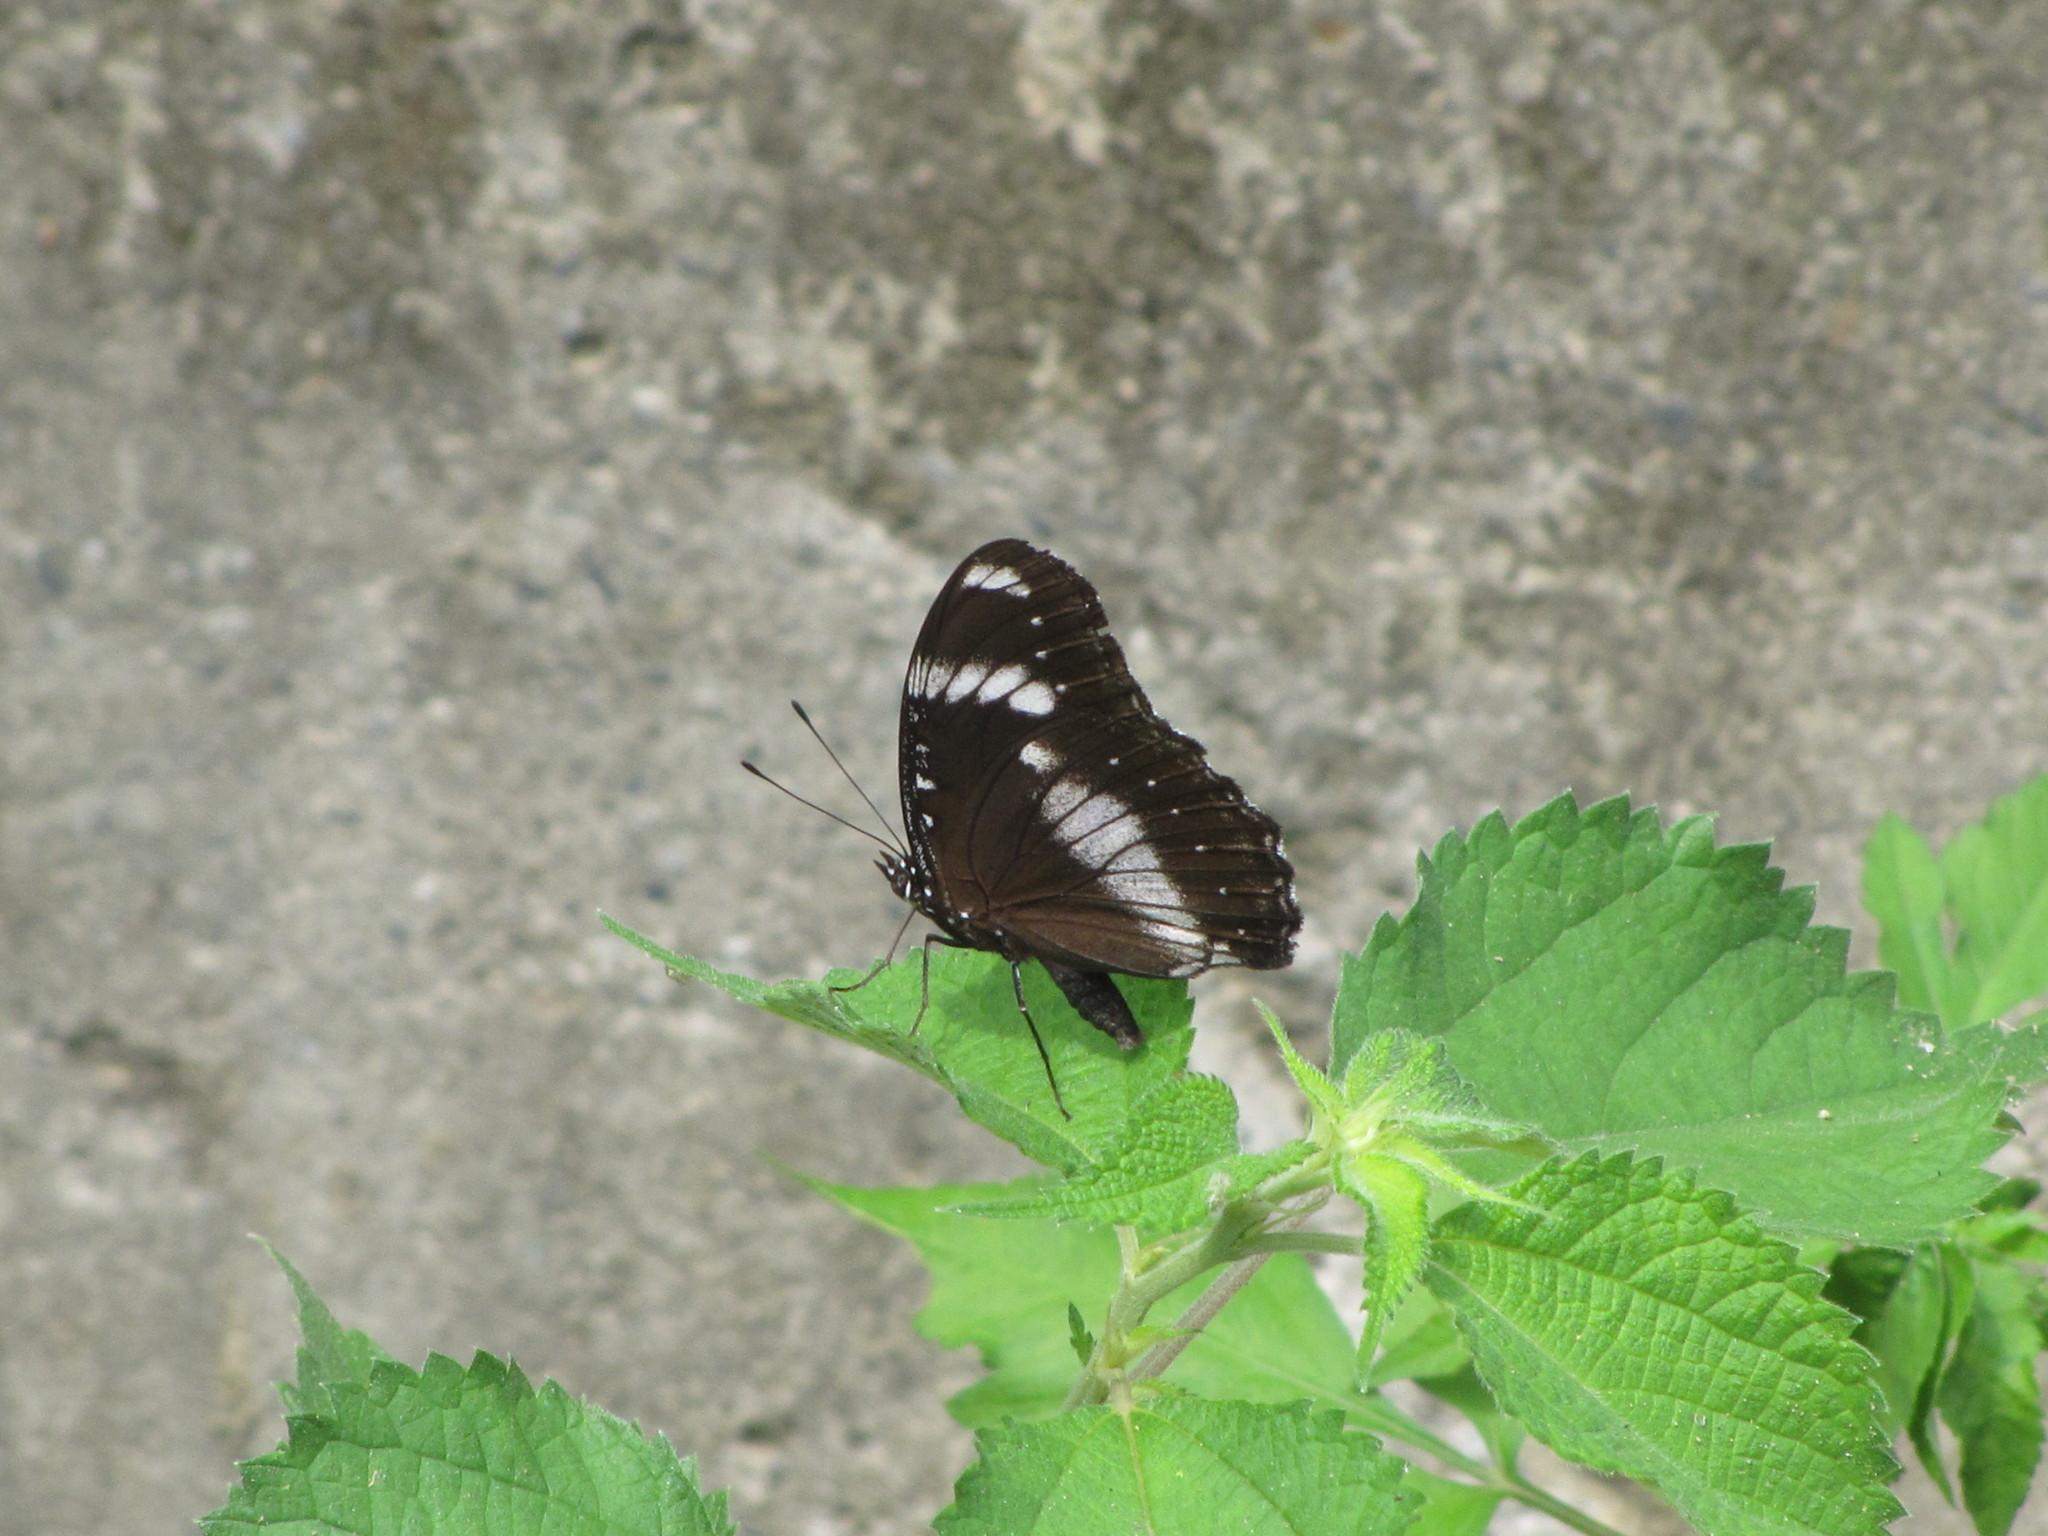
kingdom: Animalia
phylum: Arthropoda
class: Insecta
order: Lepidoptera
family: Nymphalidae
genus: Hypolimnas
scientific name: Hypolimnas bolina
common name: Great eggfly
